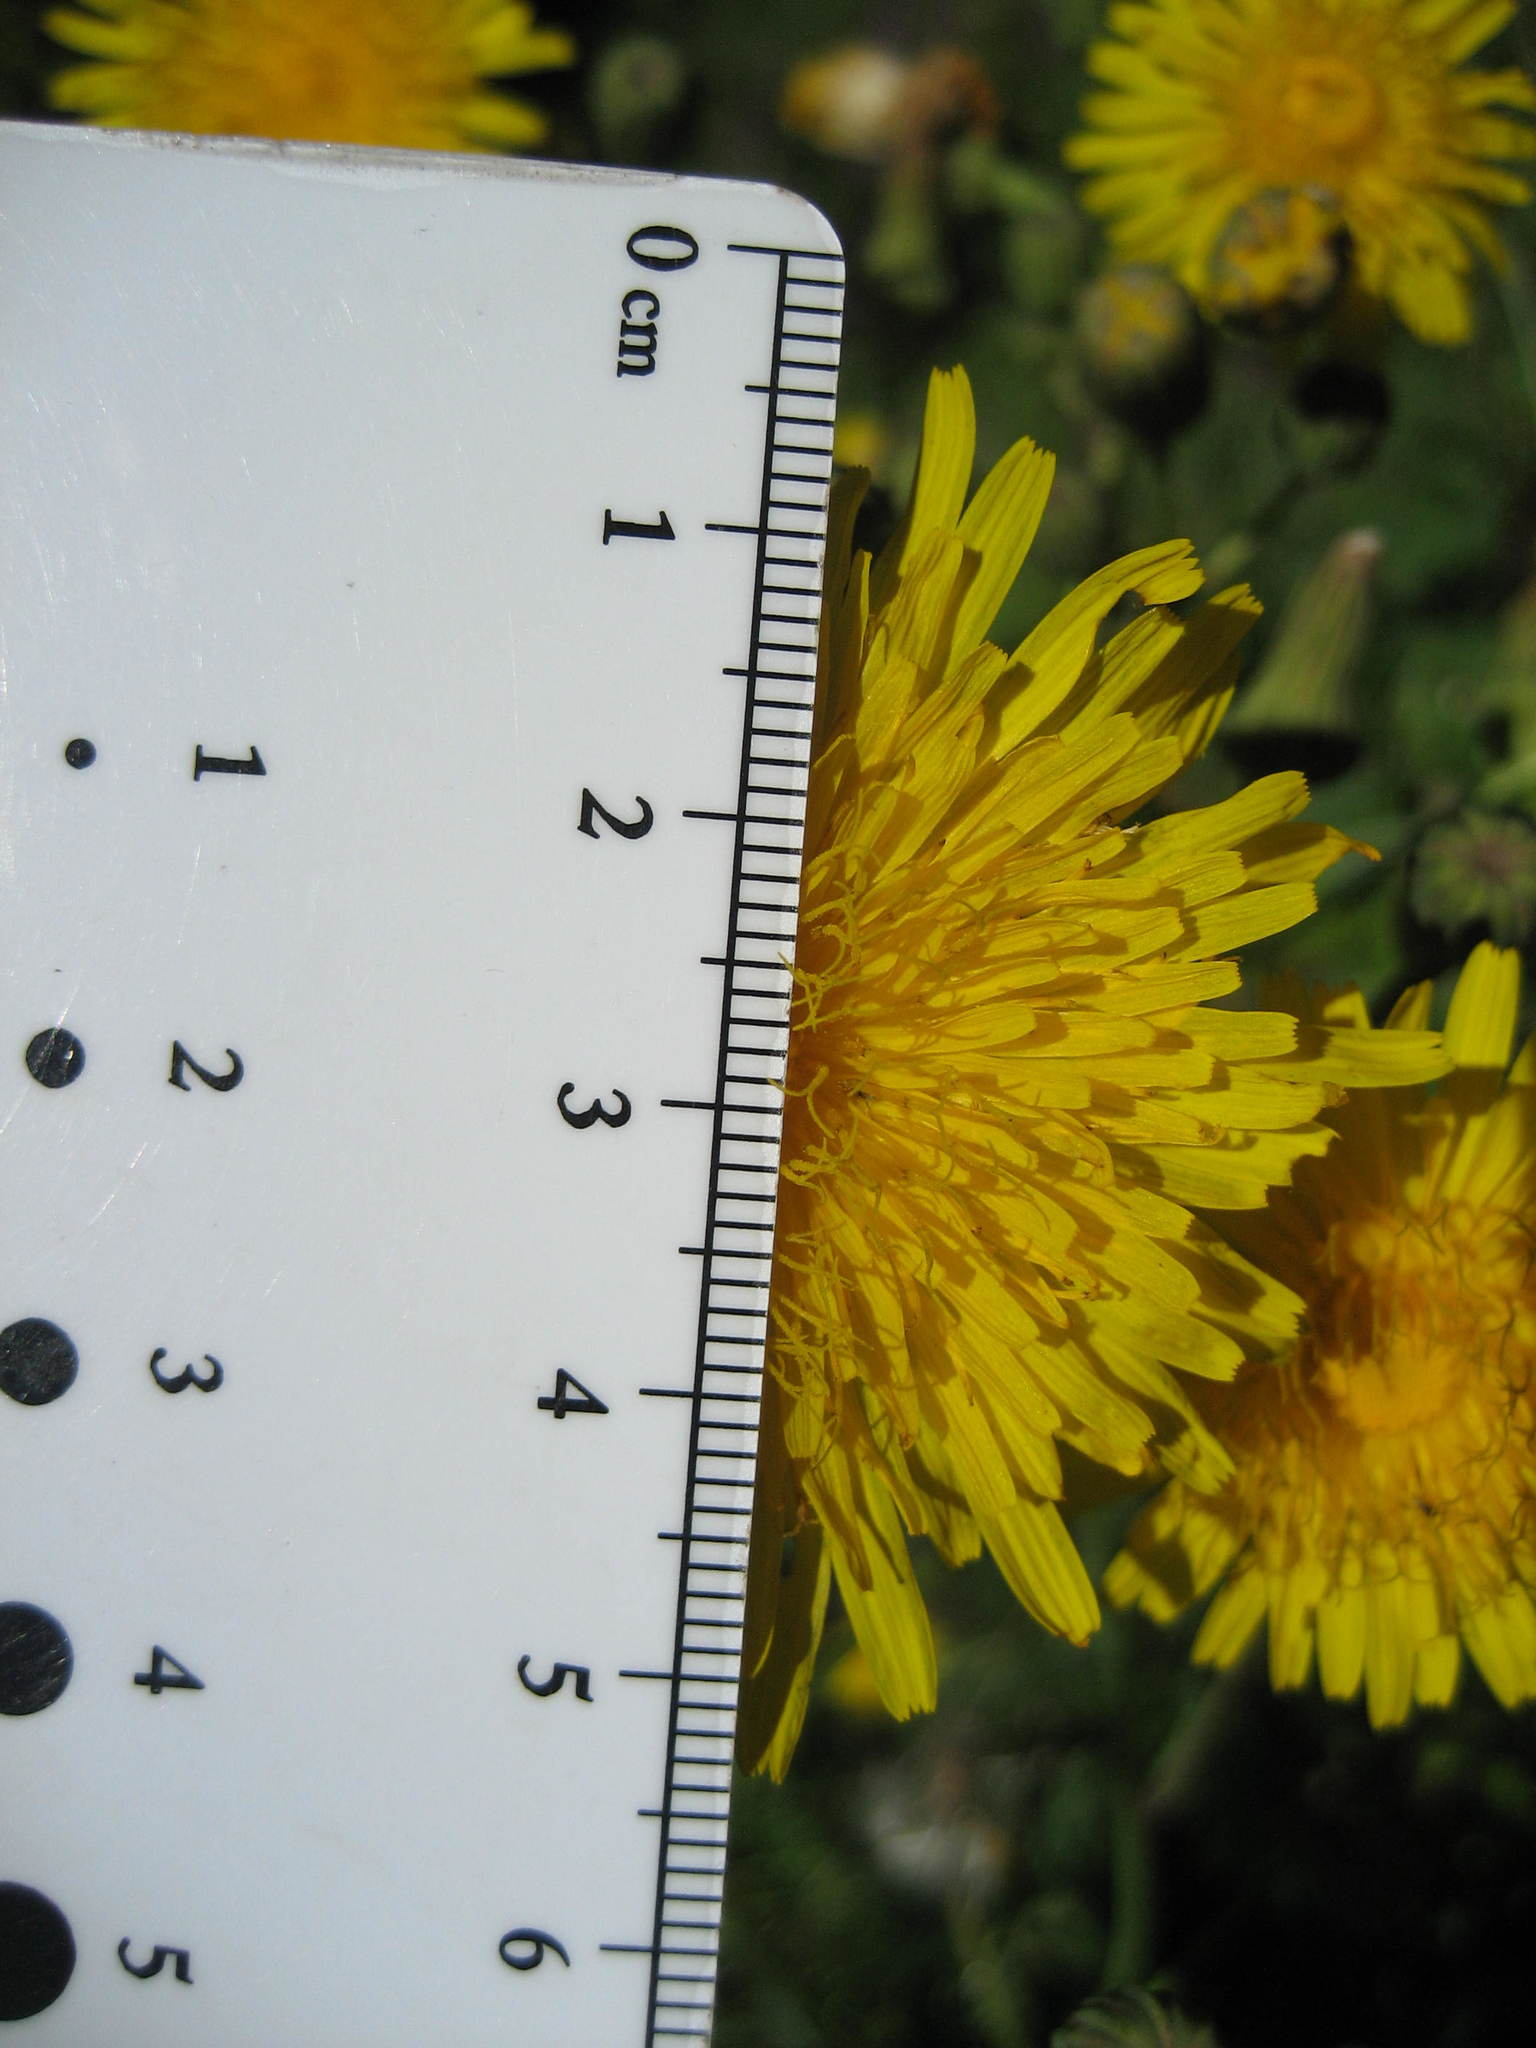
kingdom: Plantae
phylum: Tracheophyta
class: Magnoliopsida
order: Asterales
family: Asteraceae
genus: Sonchus
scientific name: Sonchus arvensis
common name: Perennial sow-thistle
